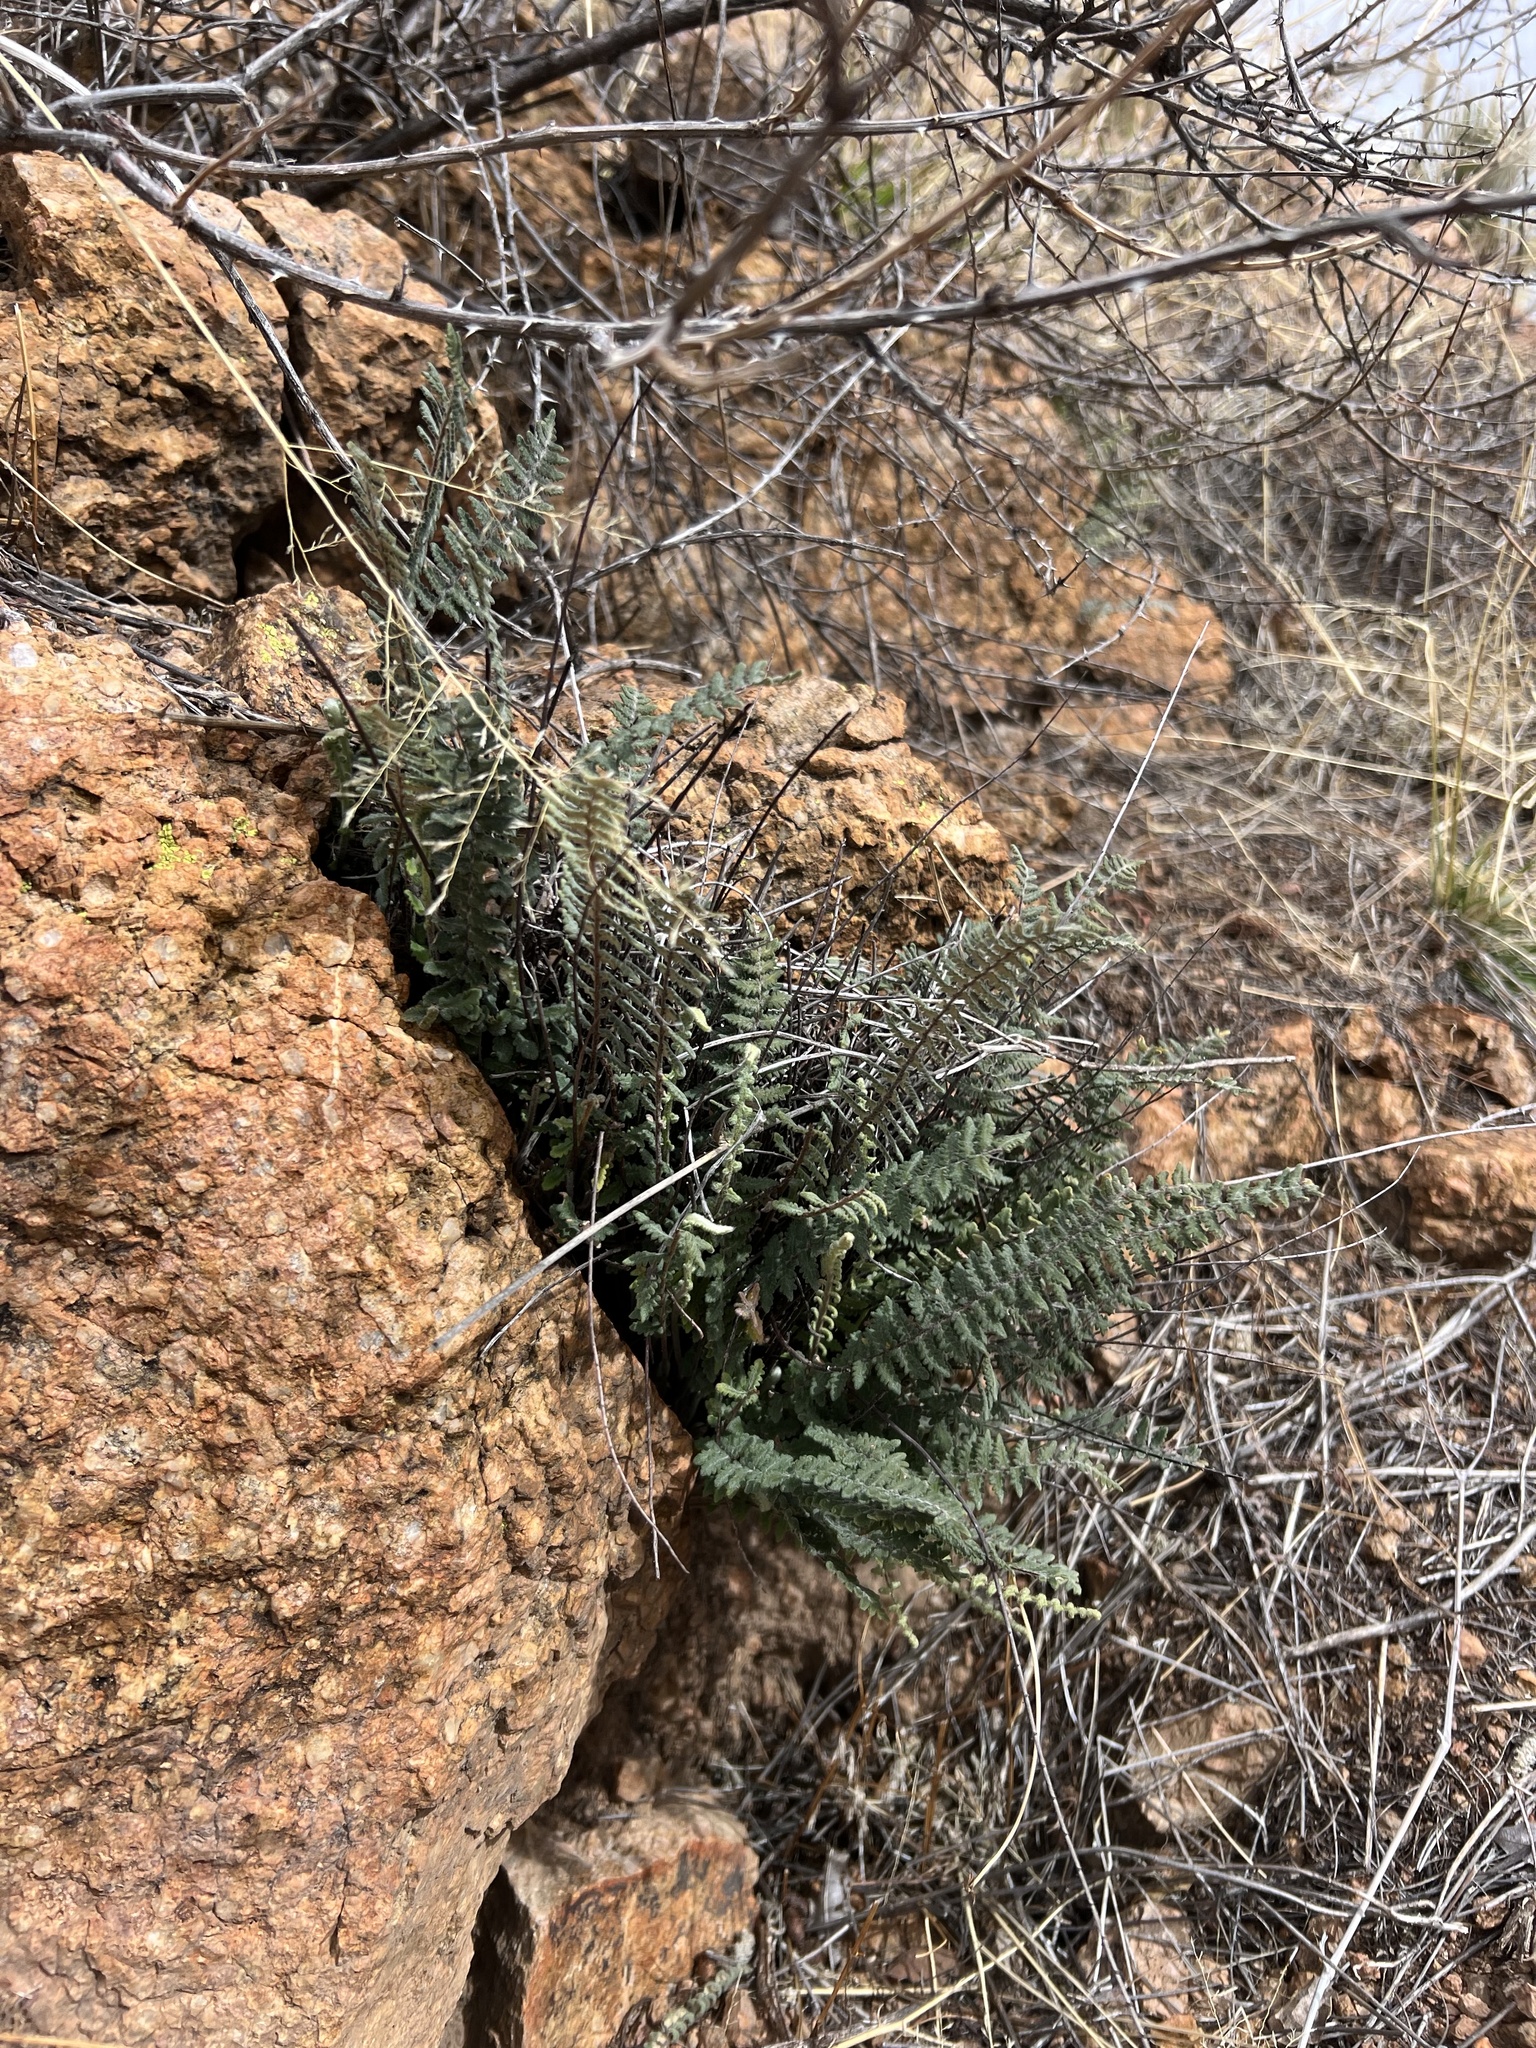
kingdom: Plantae
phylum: Tracheophyta
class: Polypodiopsida
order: Polypodiales
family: Pteridaceae
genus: Myriopteris
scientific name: Myriopteris aurea
